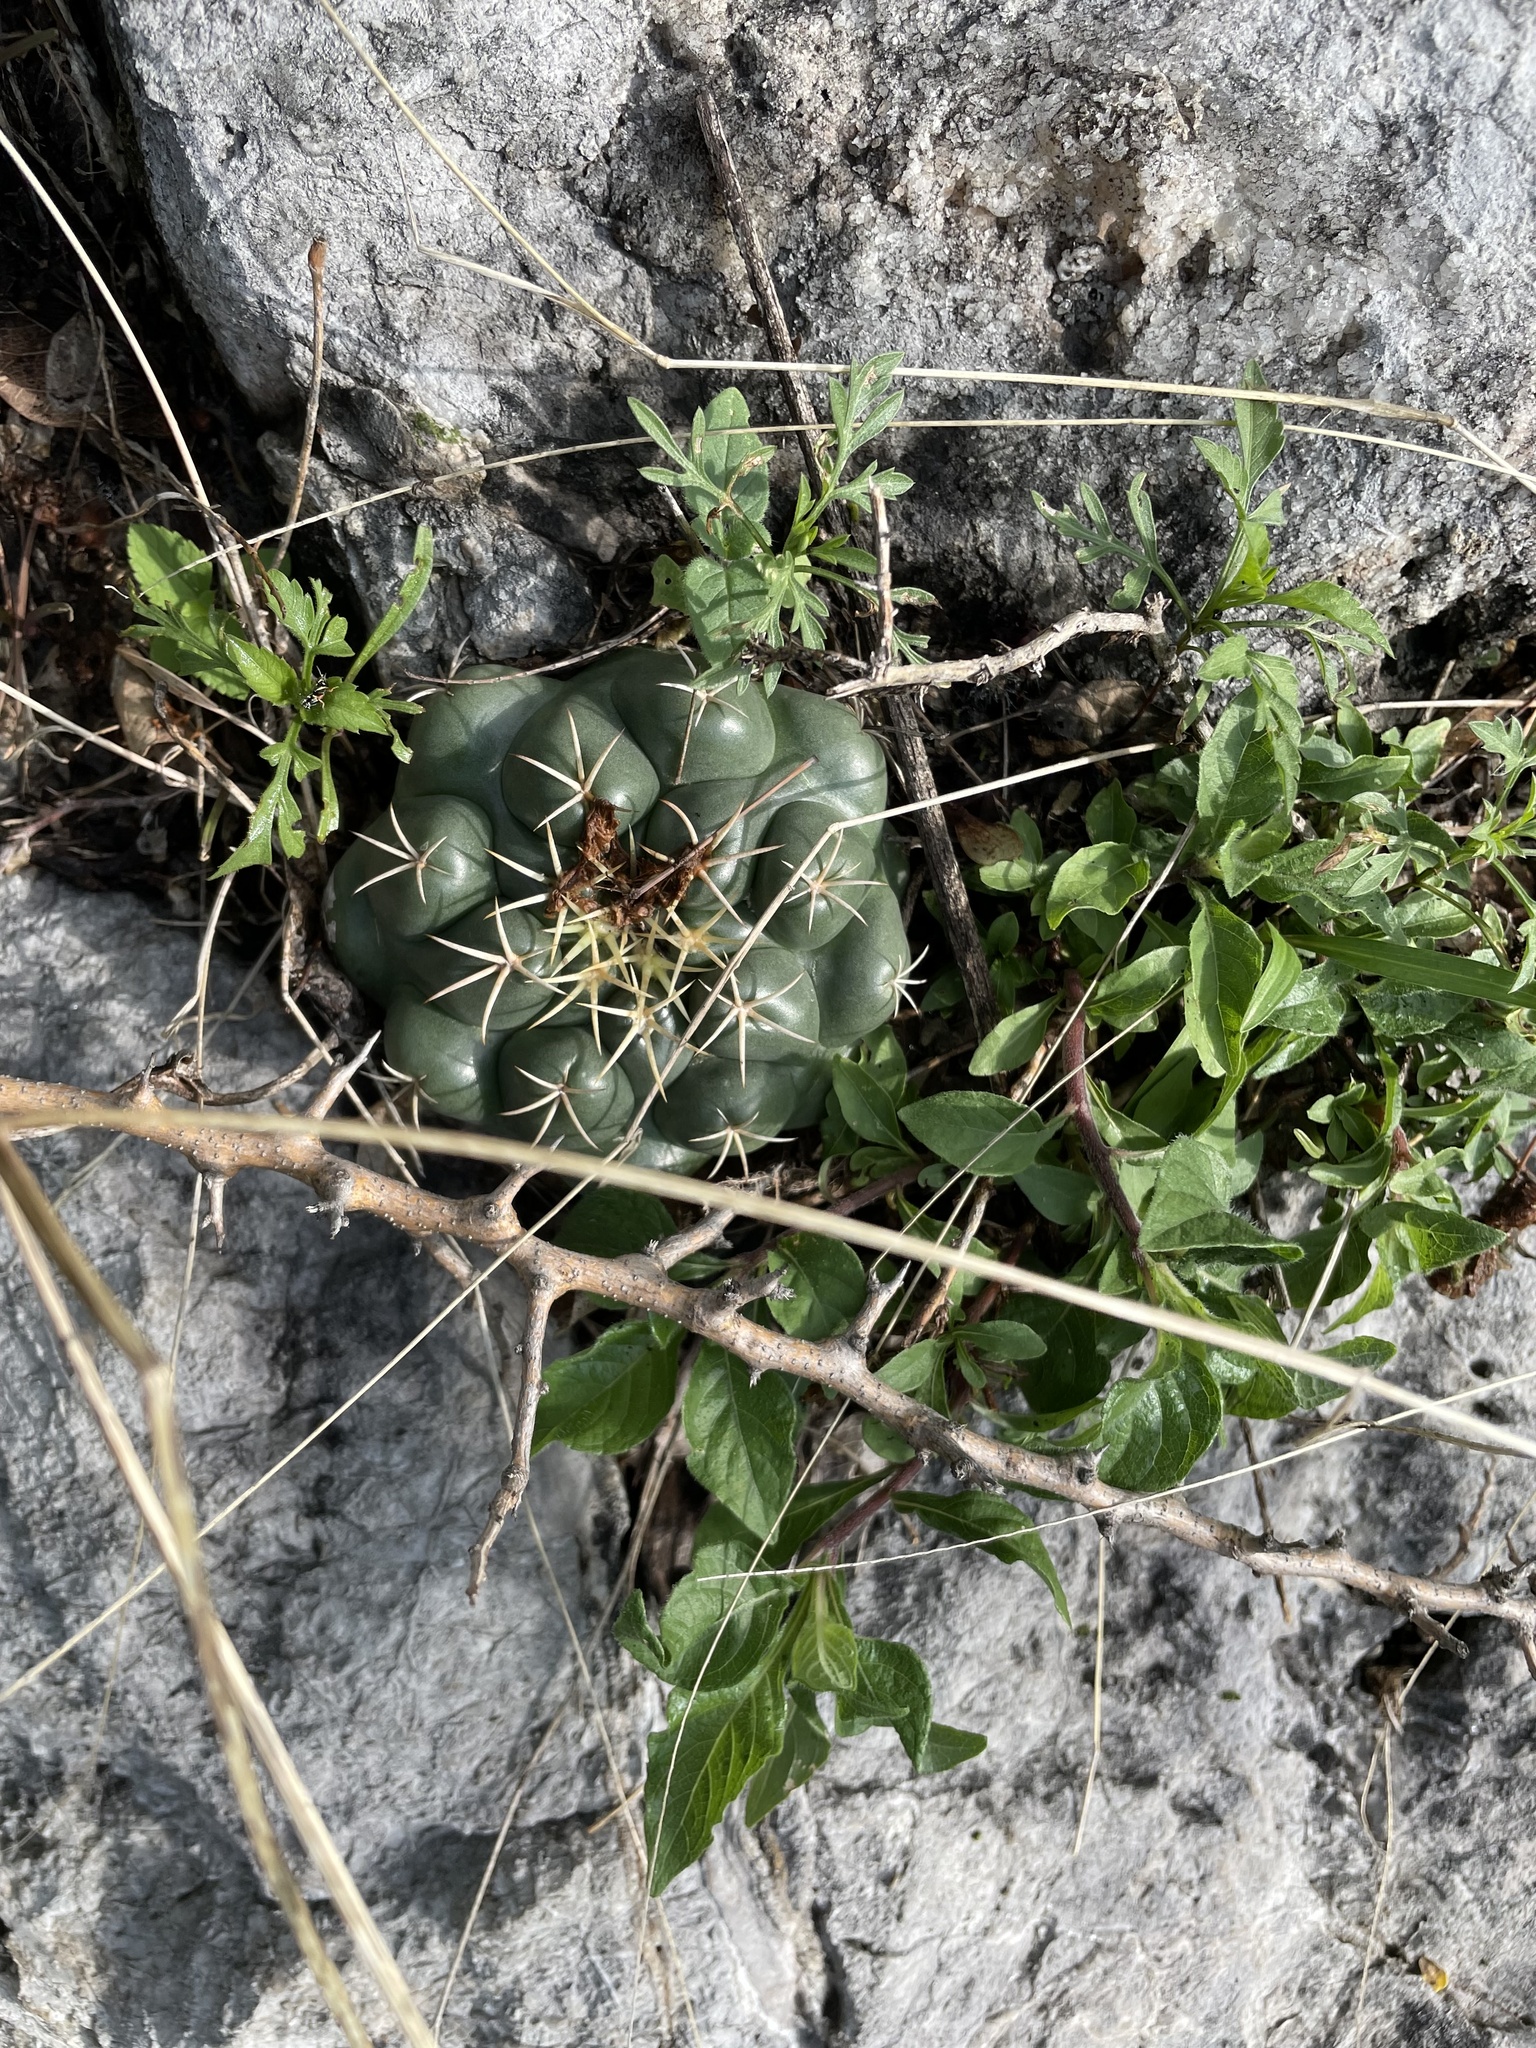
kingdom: Plantae
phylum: Tracheophyta
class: Magnoliopsida
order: Caryophyllales
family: Cactaceae
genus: Coryphantha
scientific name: Coryphantha elephantidens
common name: Elephant's tooth
